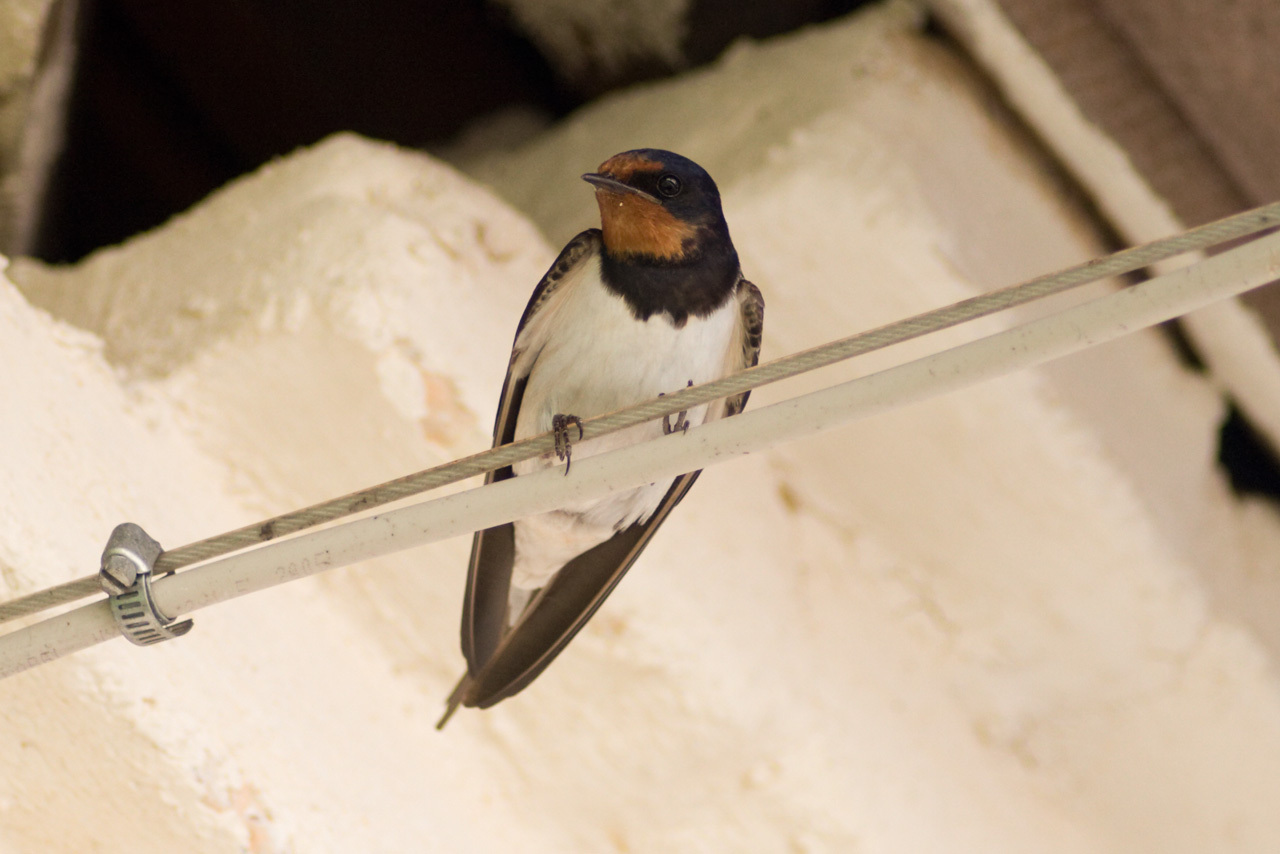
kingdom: Animalia
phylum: Chordata
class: Aves
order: Passeriformes
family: Hirundinidae
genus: Hirundo
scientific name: Hirundo rustica
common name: Barn swallow
